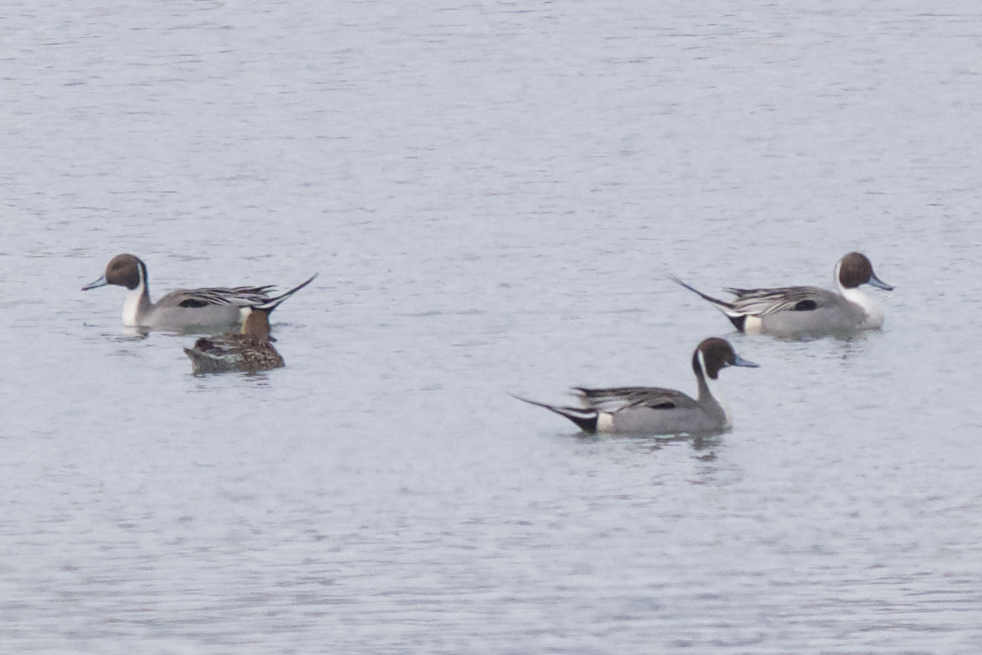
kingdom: Animalia
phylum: Chordata
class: Aves
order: Anseriformes
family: Anatidae
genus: Anas
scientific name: Anas acuta
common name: Northern pintail
